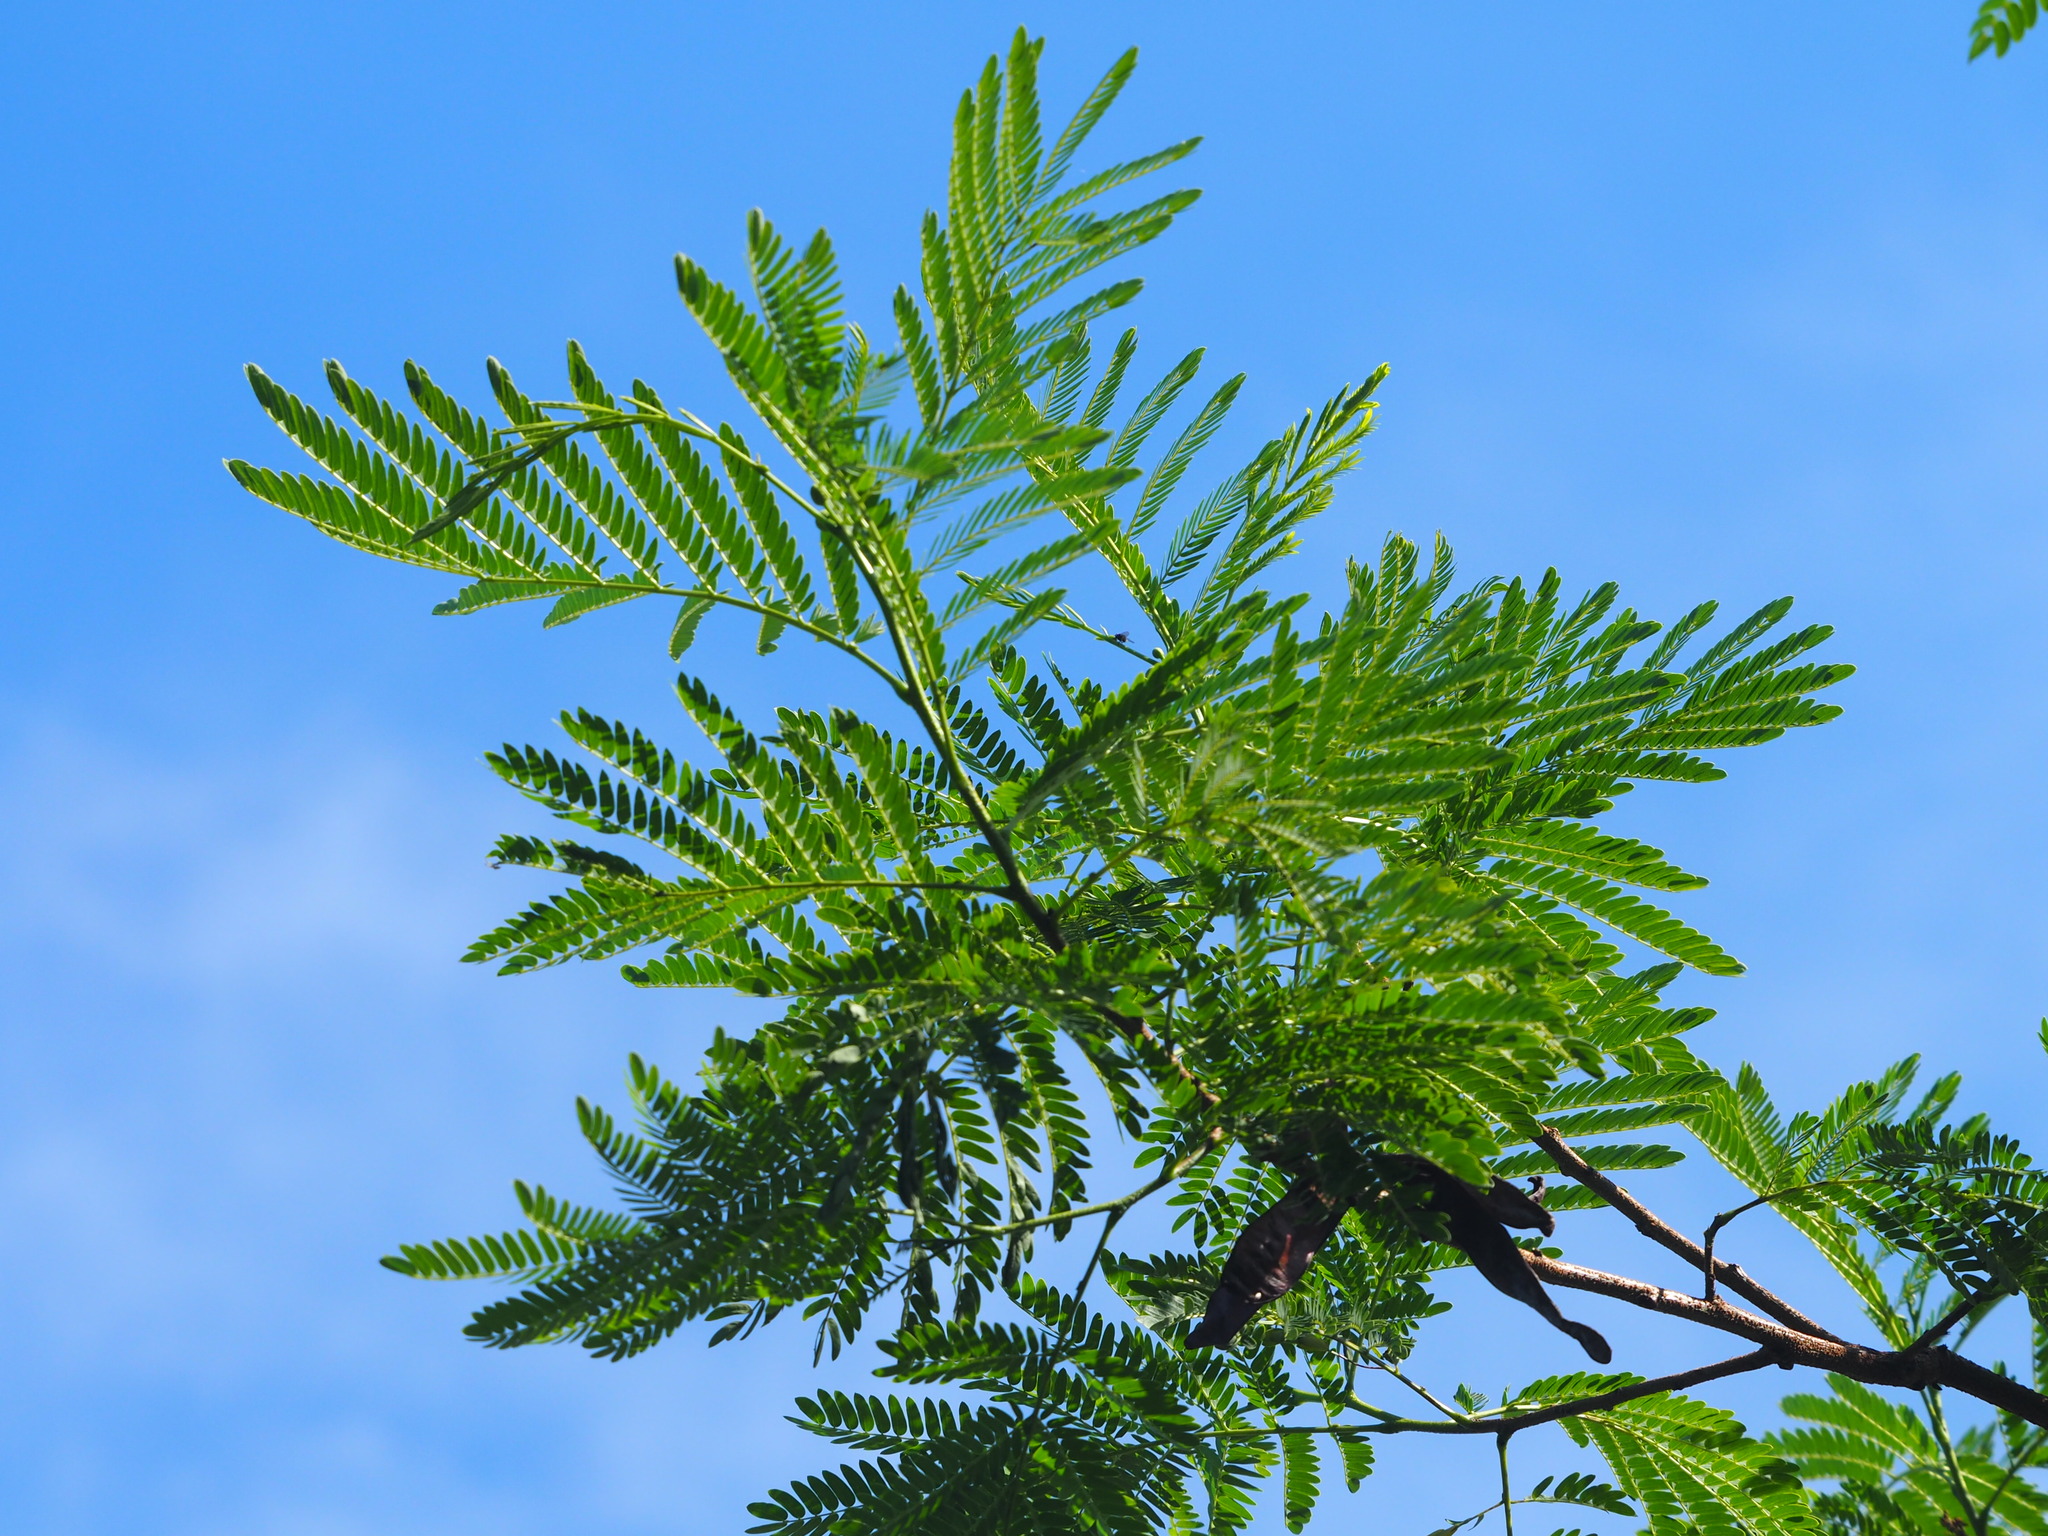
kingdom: Plantae
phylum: Tracheophyta
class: Magnoliopsida
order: Fabales
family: Fabaceae
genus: Leucaena
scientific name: Leucaena leucocephala
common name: White leadtree
